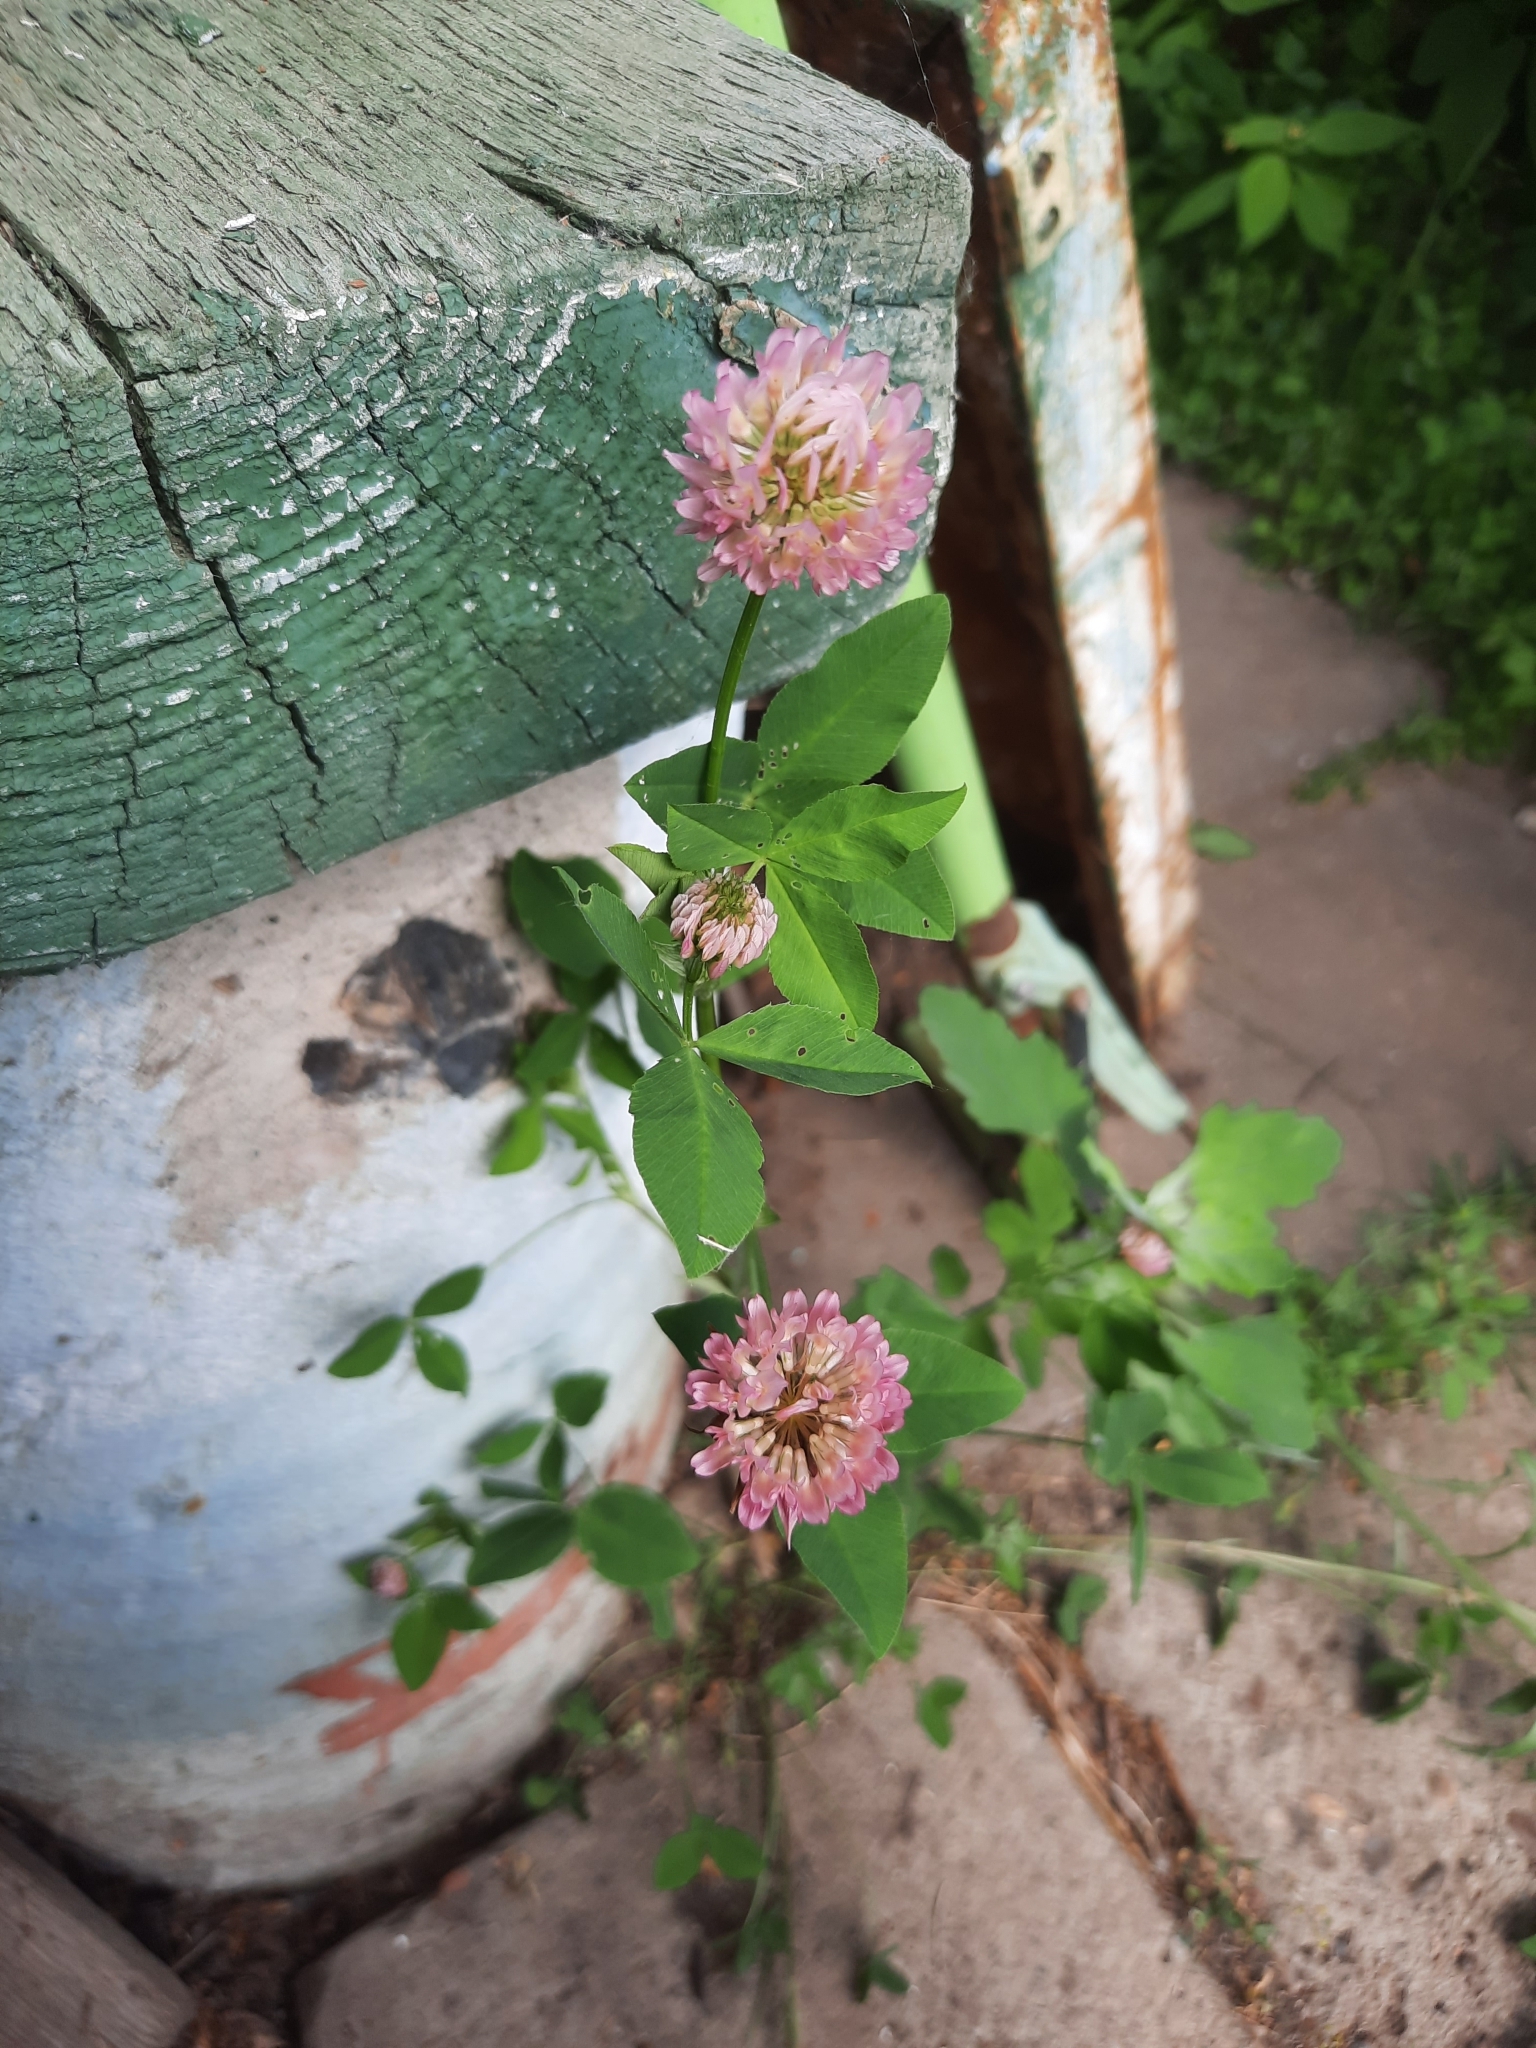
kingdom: Plantae
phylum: Tracheophyta
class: Magnoliopsida
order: Fabales
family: Fabaceae
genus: Trifolium
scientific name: Trifolium hybridum
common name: Alsike clover
